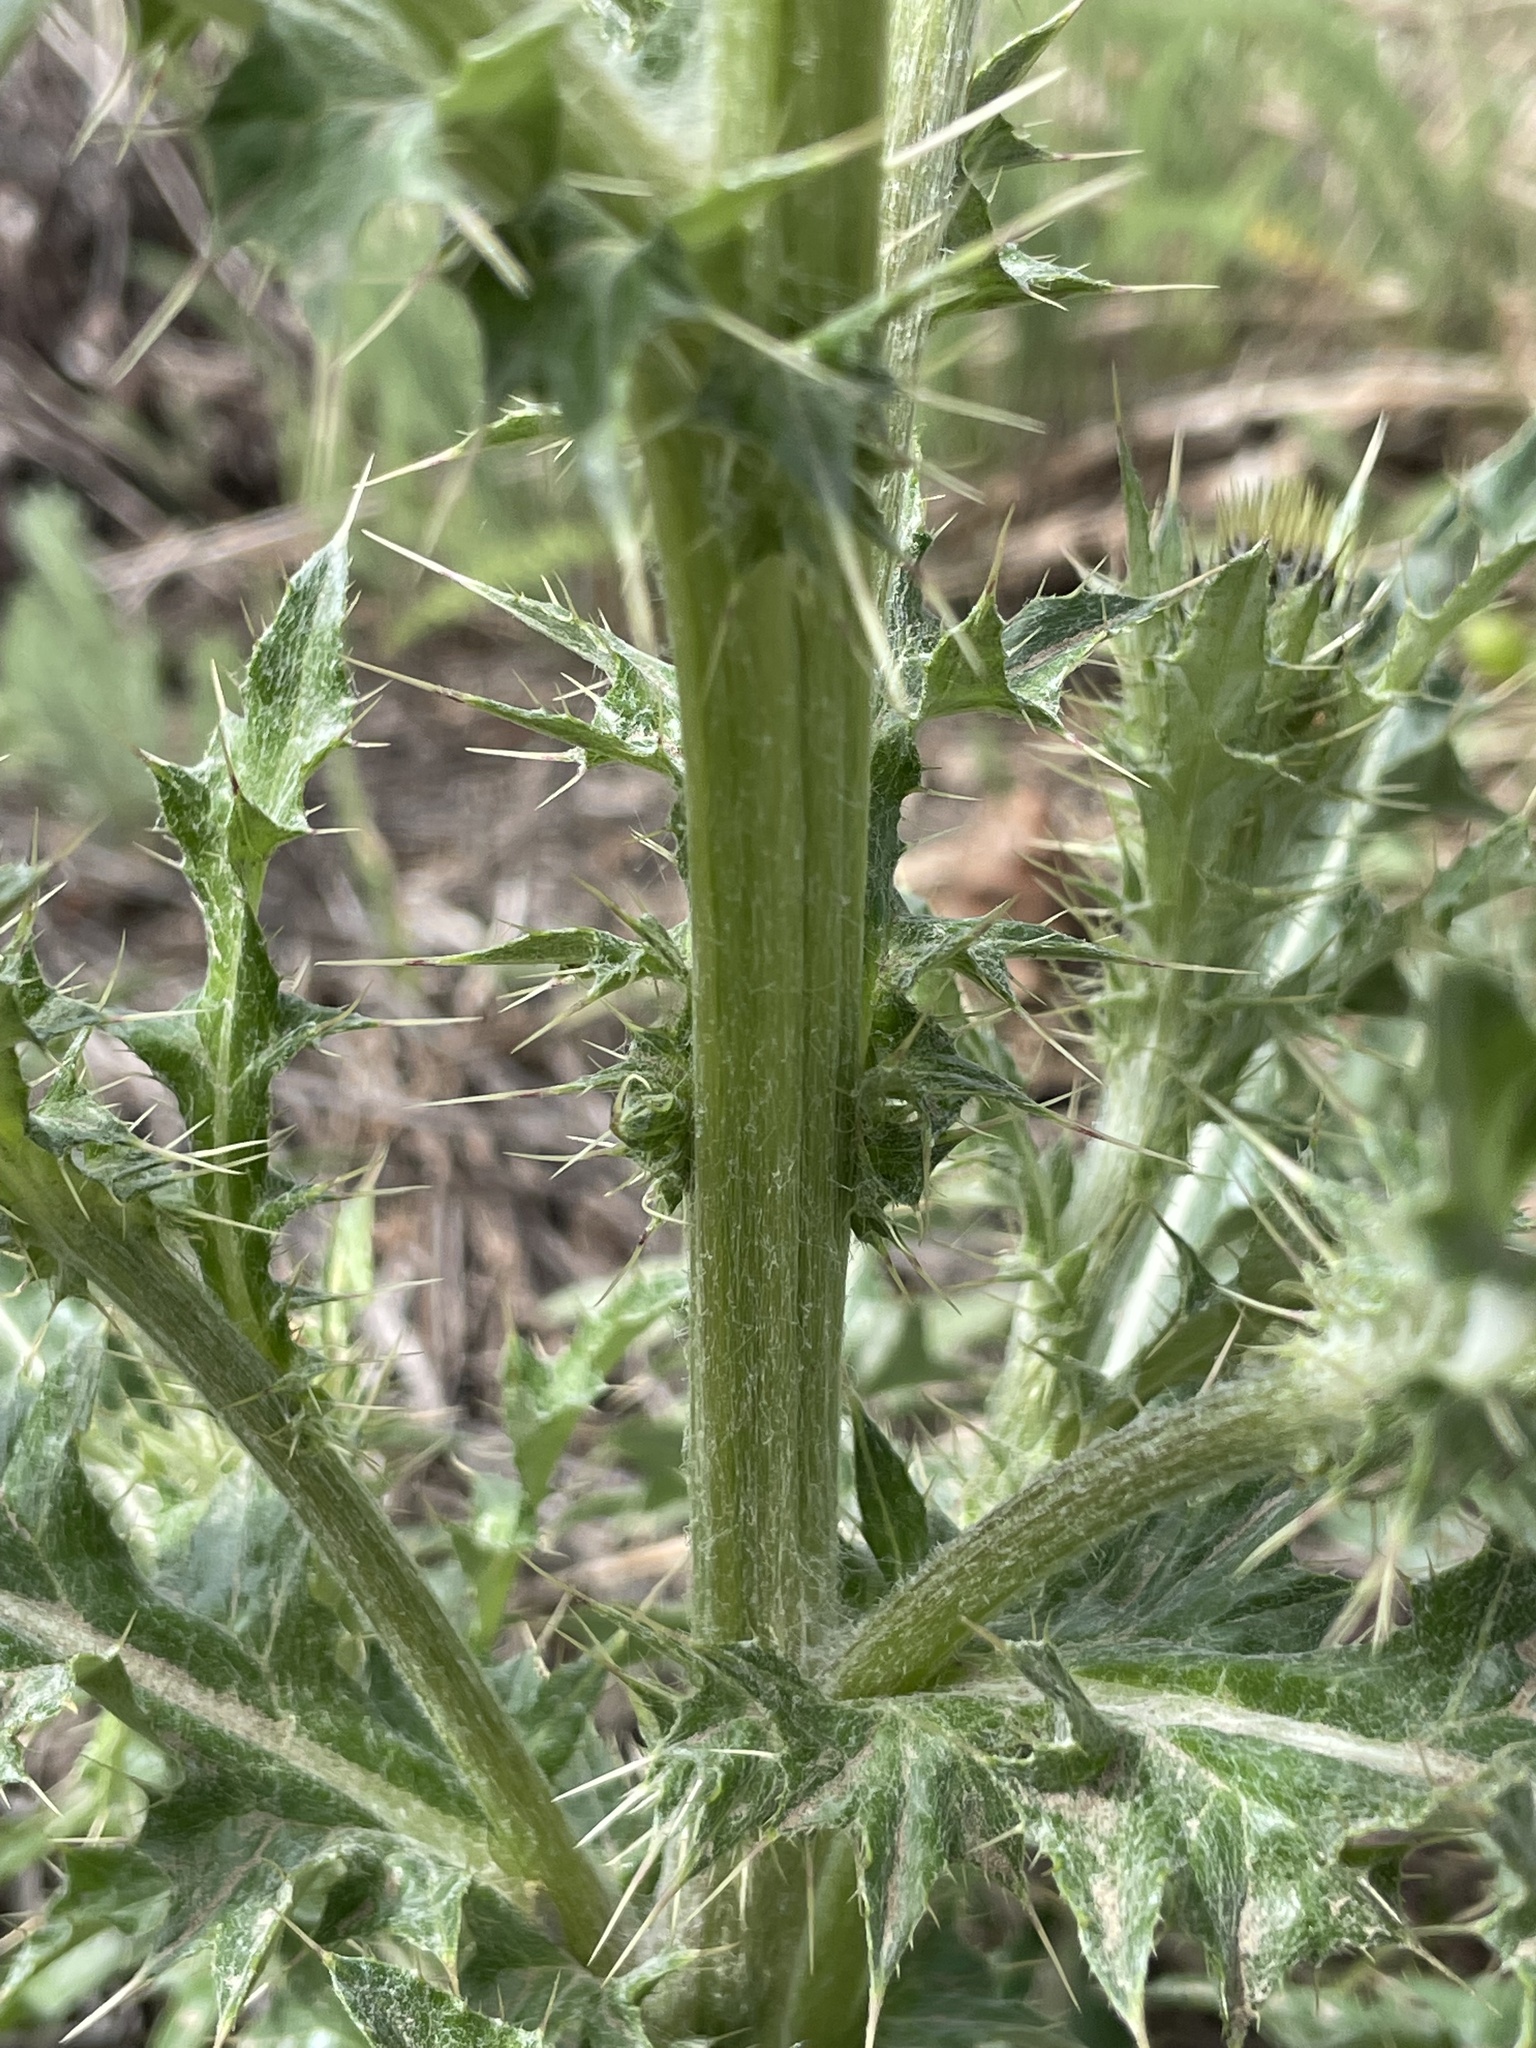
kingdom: Plantae
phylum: Tracheophyta
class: Magnoliopsida
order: Asterales
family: Asteraceae
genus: Cirsium
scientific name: Cirsium inamoenum
